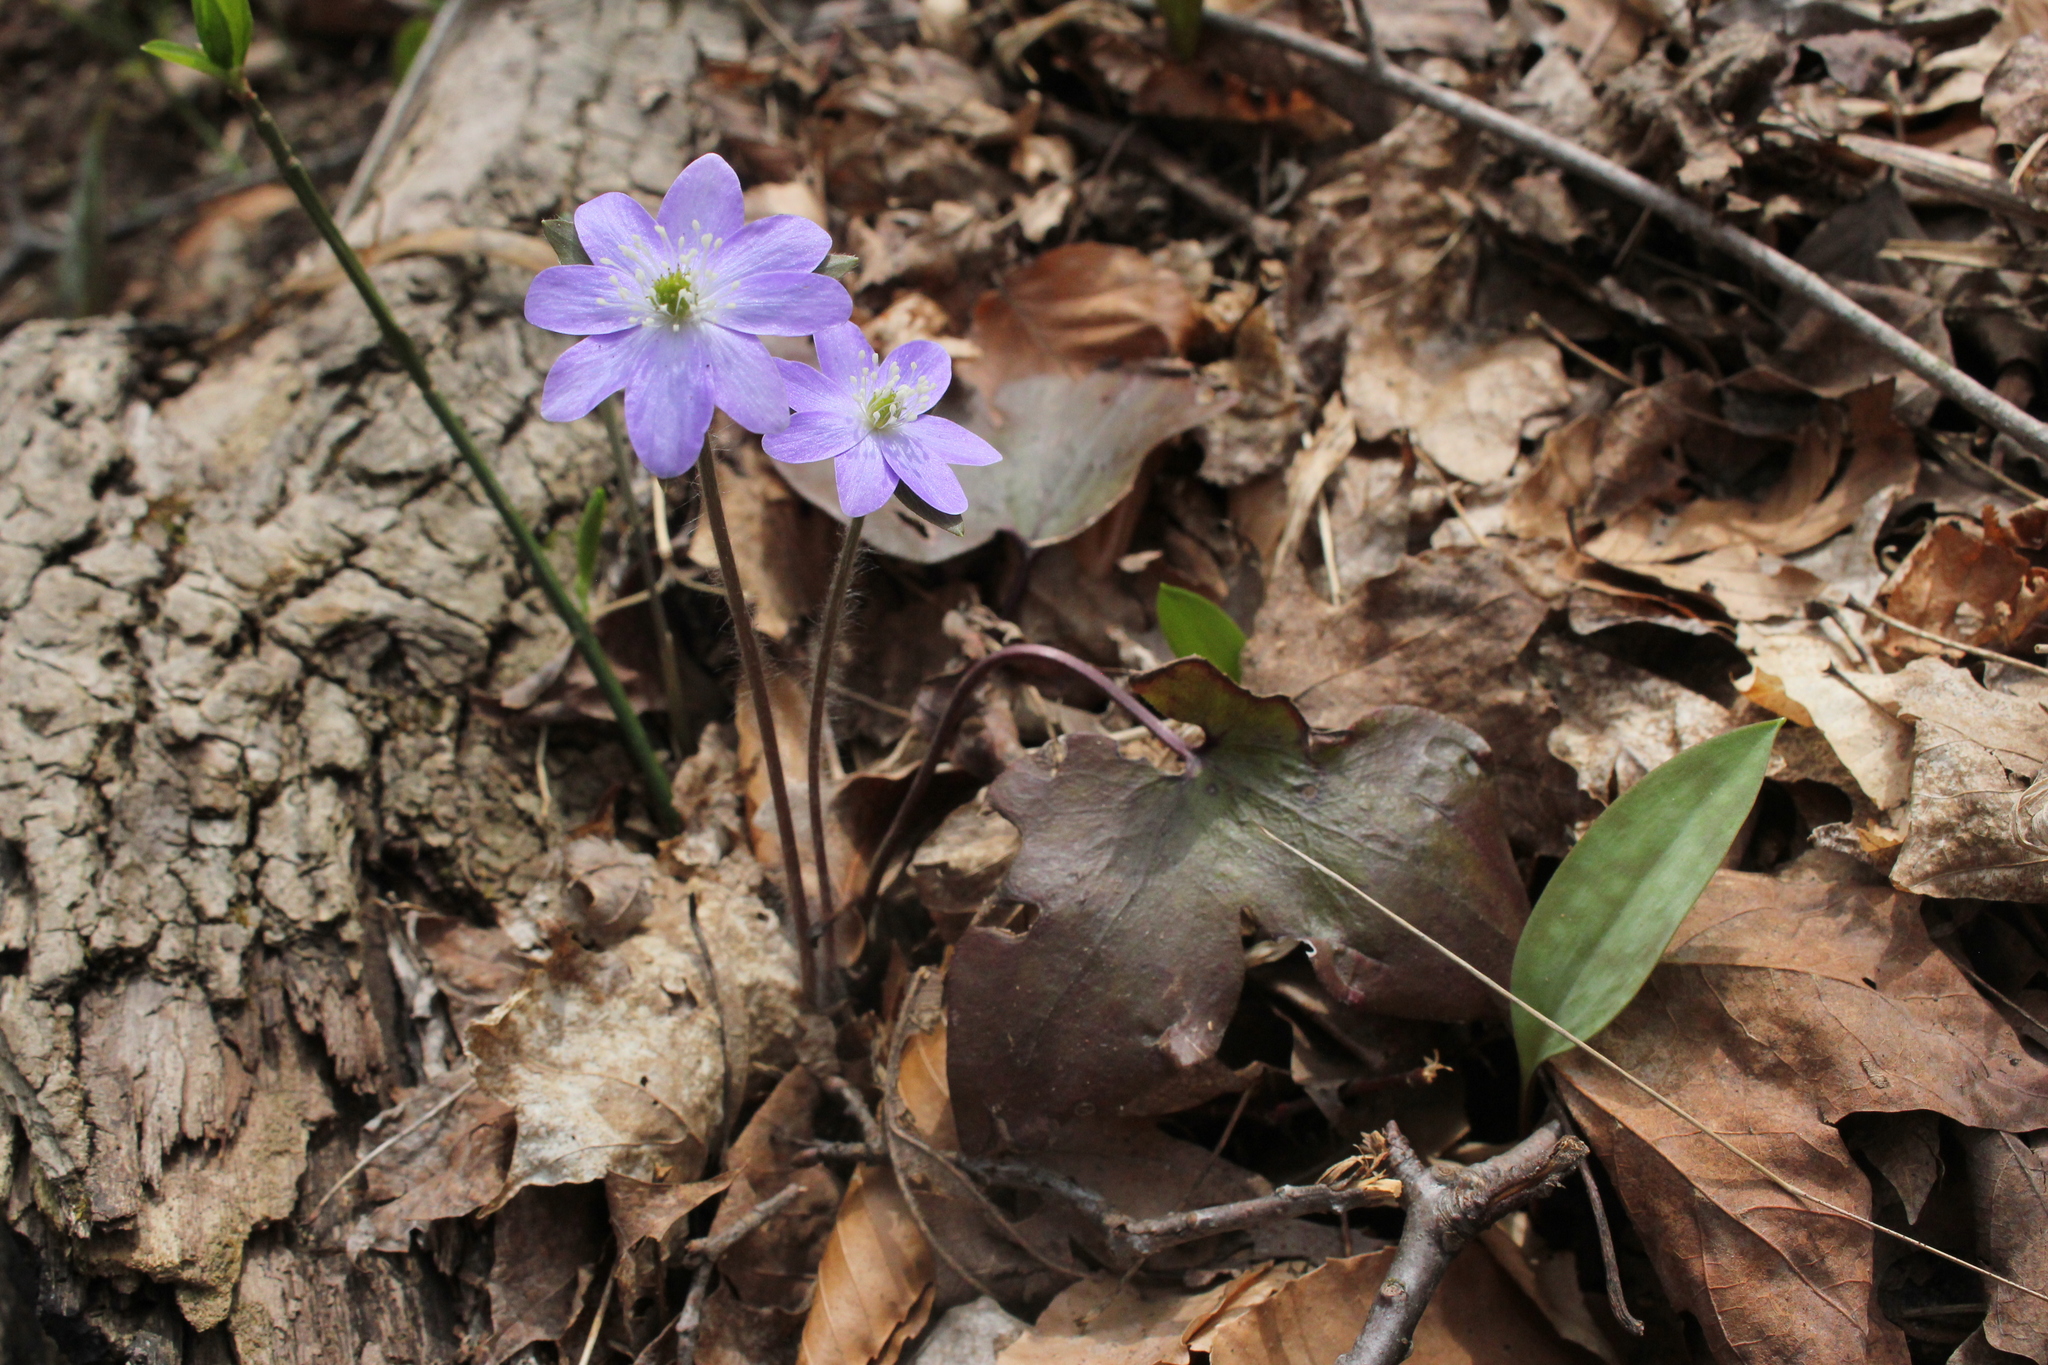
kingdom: Plantae
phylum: Tracheophyta
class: Magnoliopsida
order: Ranunculales
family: Ranunculaceae
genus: Hepatica
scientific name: Hepatica acutiloba
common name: Sharp-lobed hepatica
